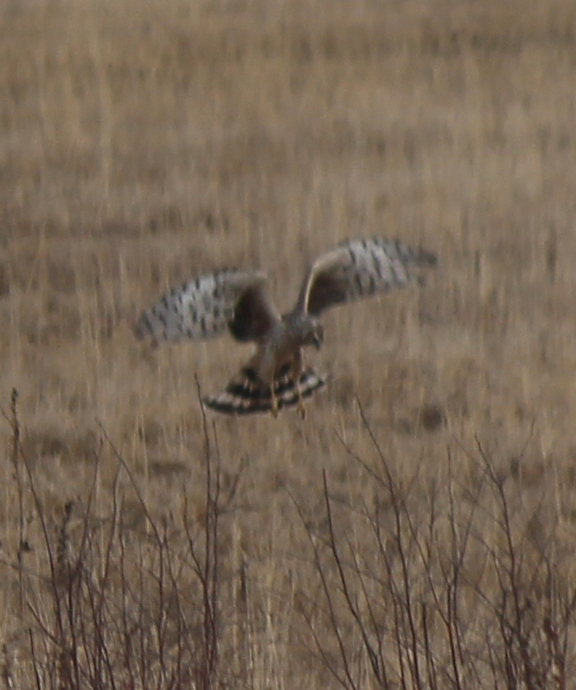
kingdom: Animalia
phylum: Chordata
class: Aves
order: Accipitriformes
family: Accipitridae
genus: Circus
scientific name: Circus cyaneus
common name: Hen harrier
